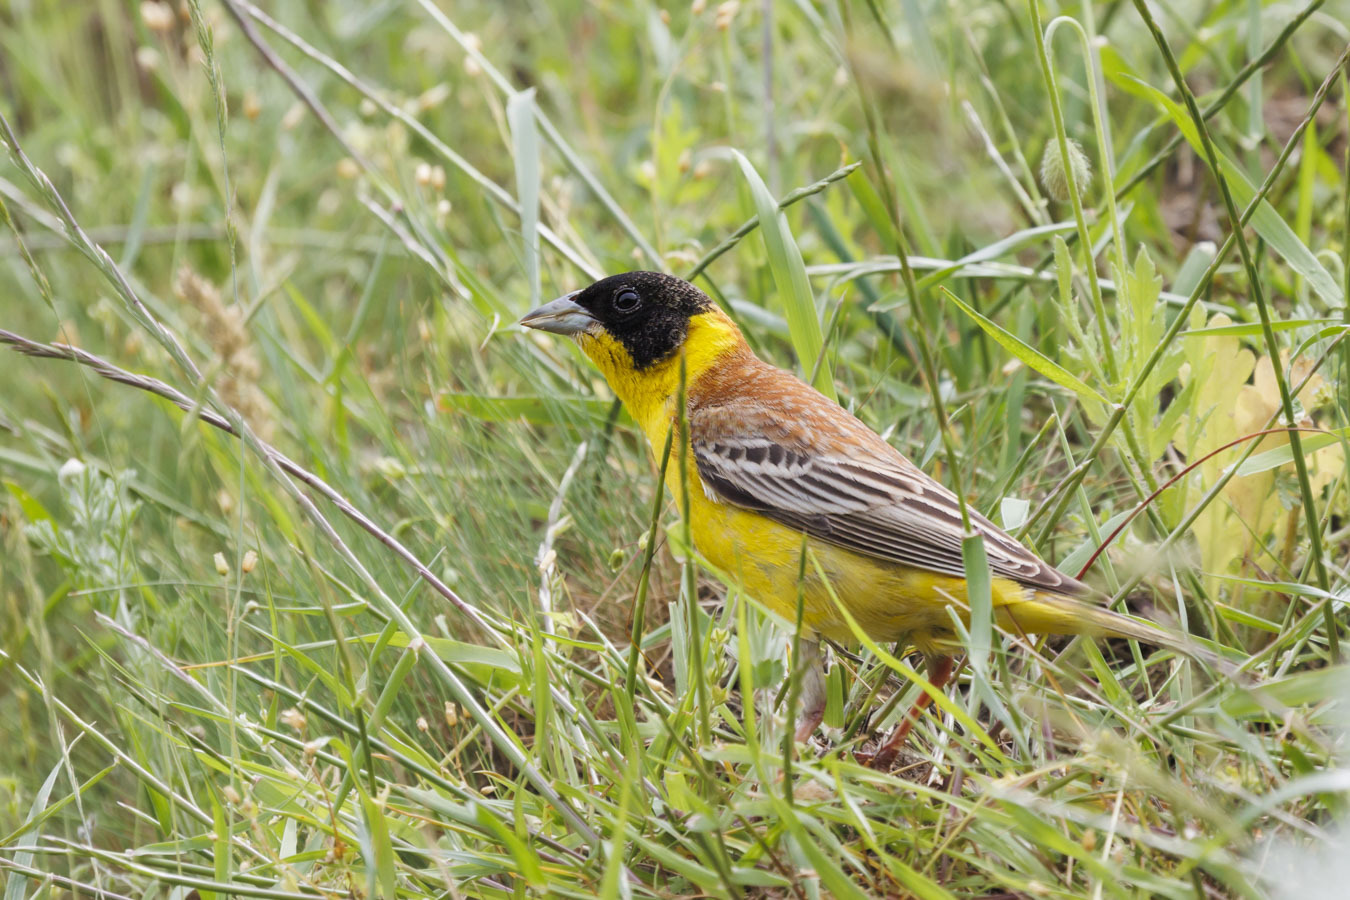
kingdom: Animalia
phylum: Chordata
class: Aves
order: Passeriformes
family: Emberizidae
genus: Emberiza
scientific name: Emberiza melanocephala
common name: Black-headed bunting
